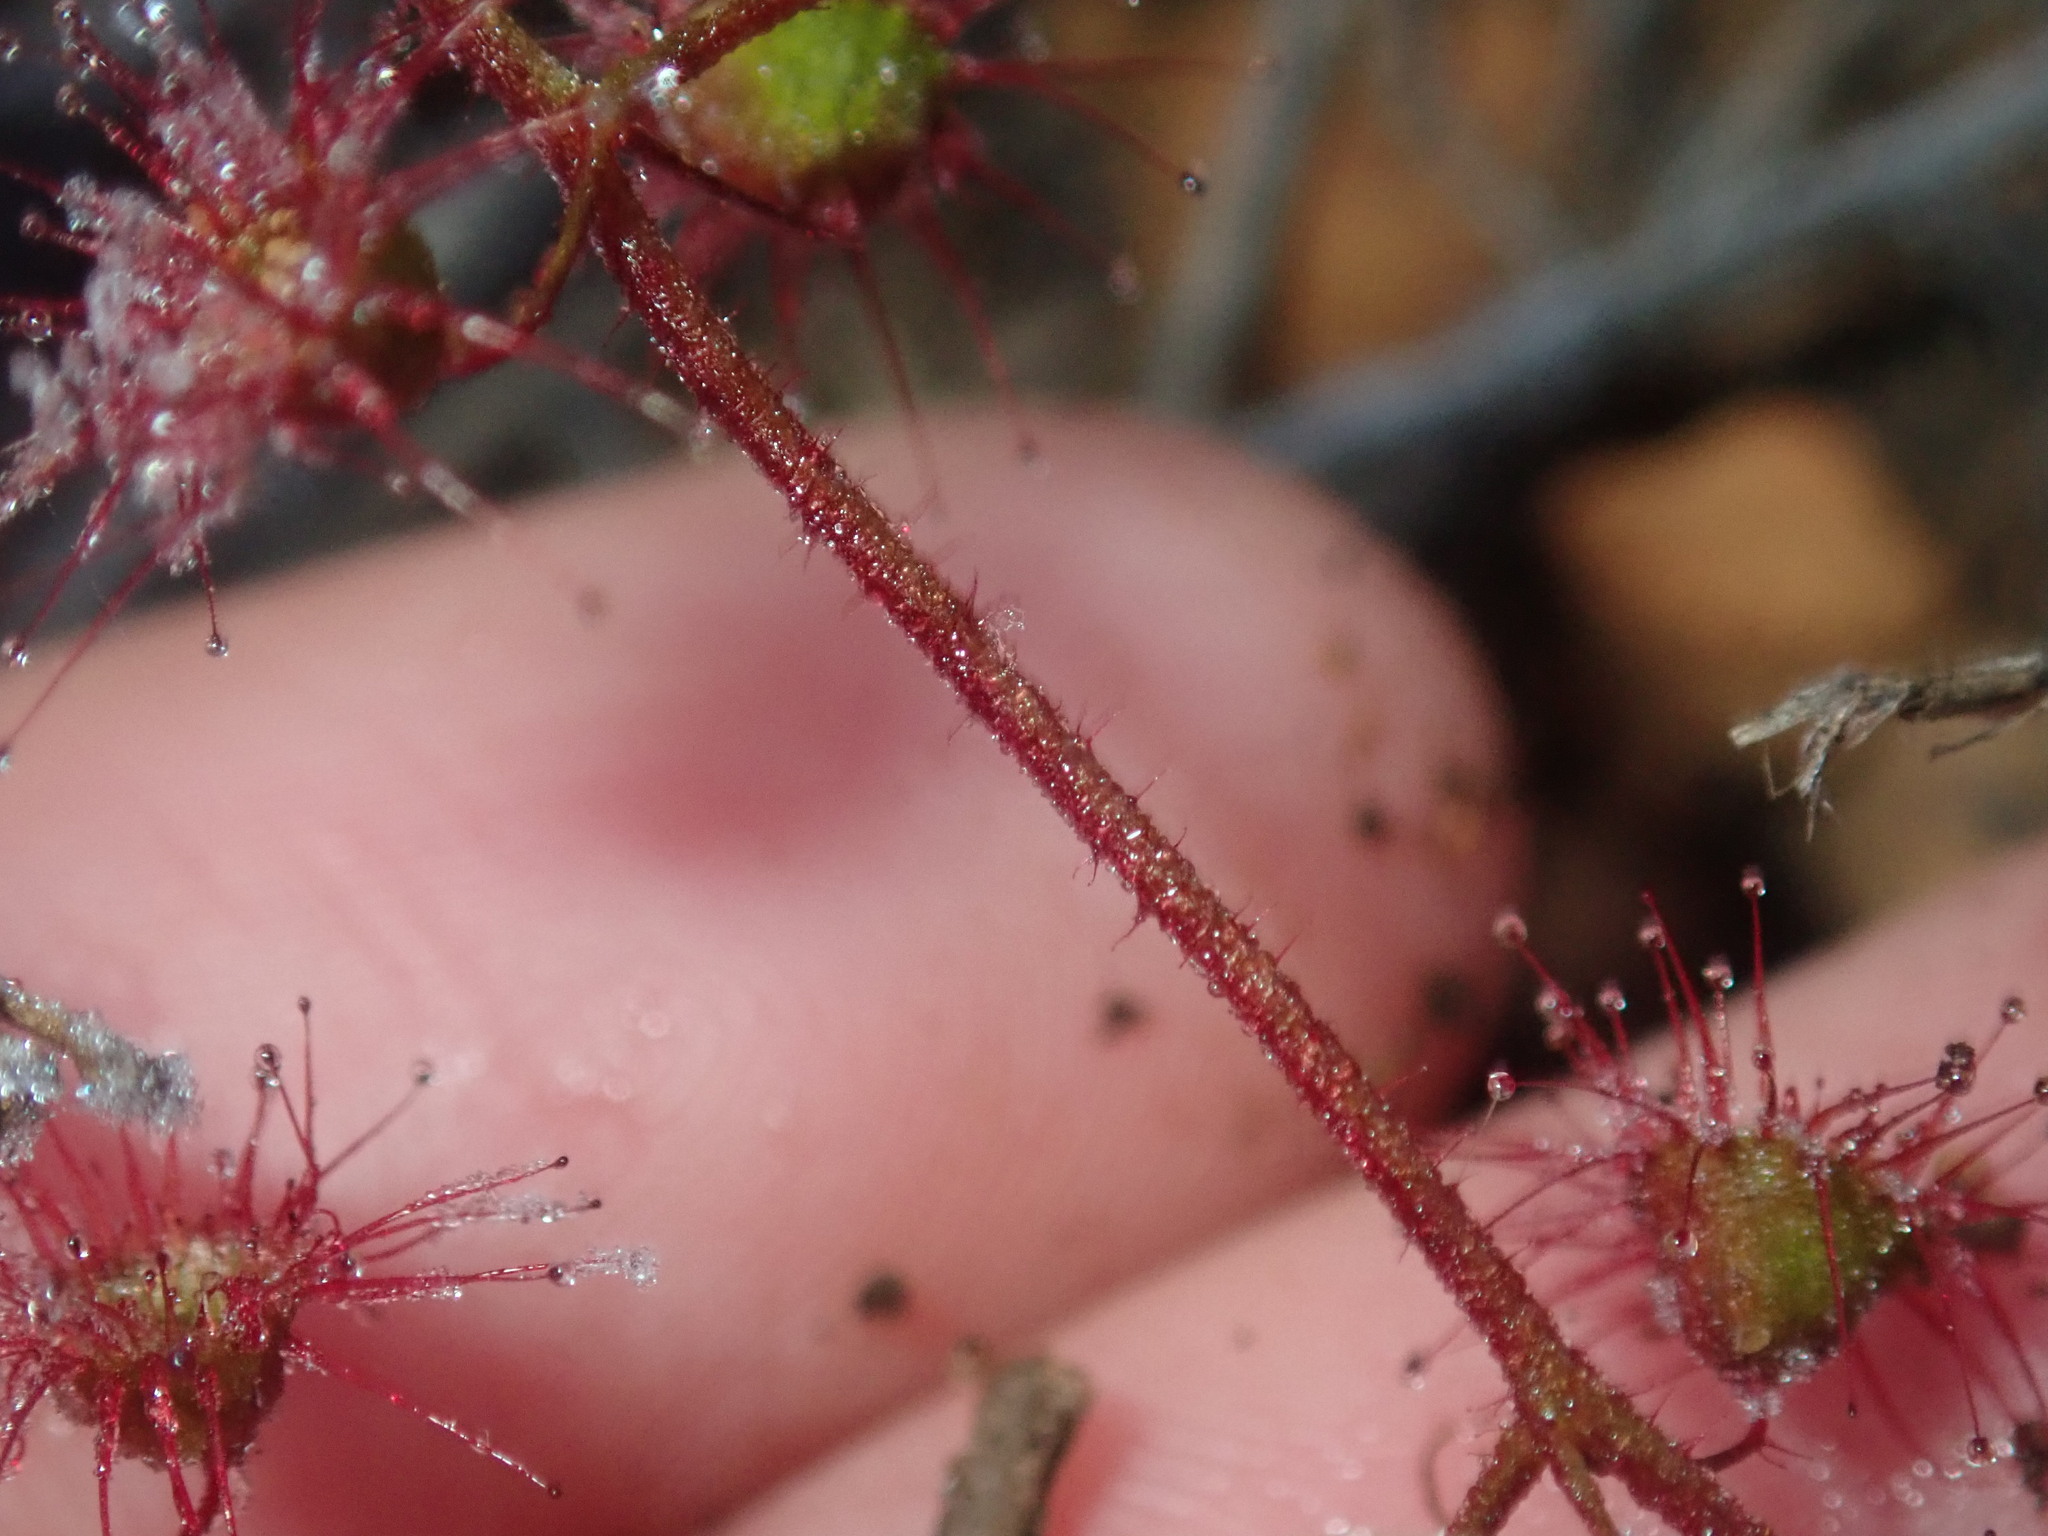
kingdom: Plantae
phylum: Tracheophyta
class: Magnoliopsida
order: Caryophyllales
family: Droseraceae
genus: Drosera
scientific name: Drosera macrantha
